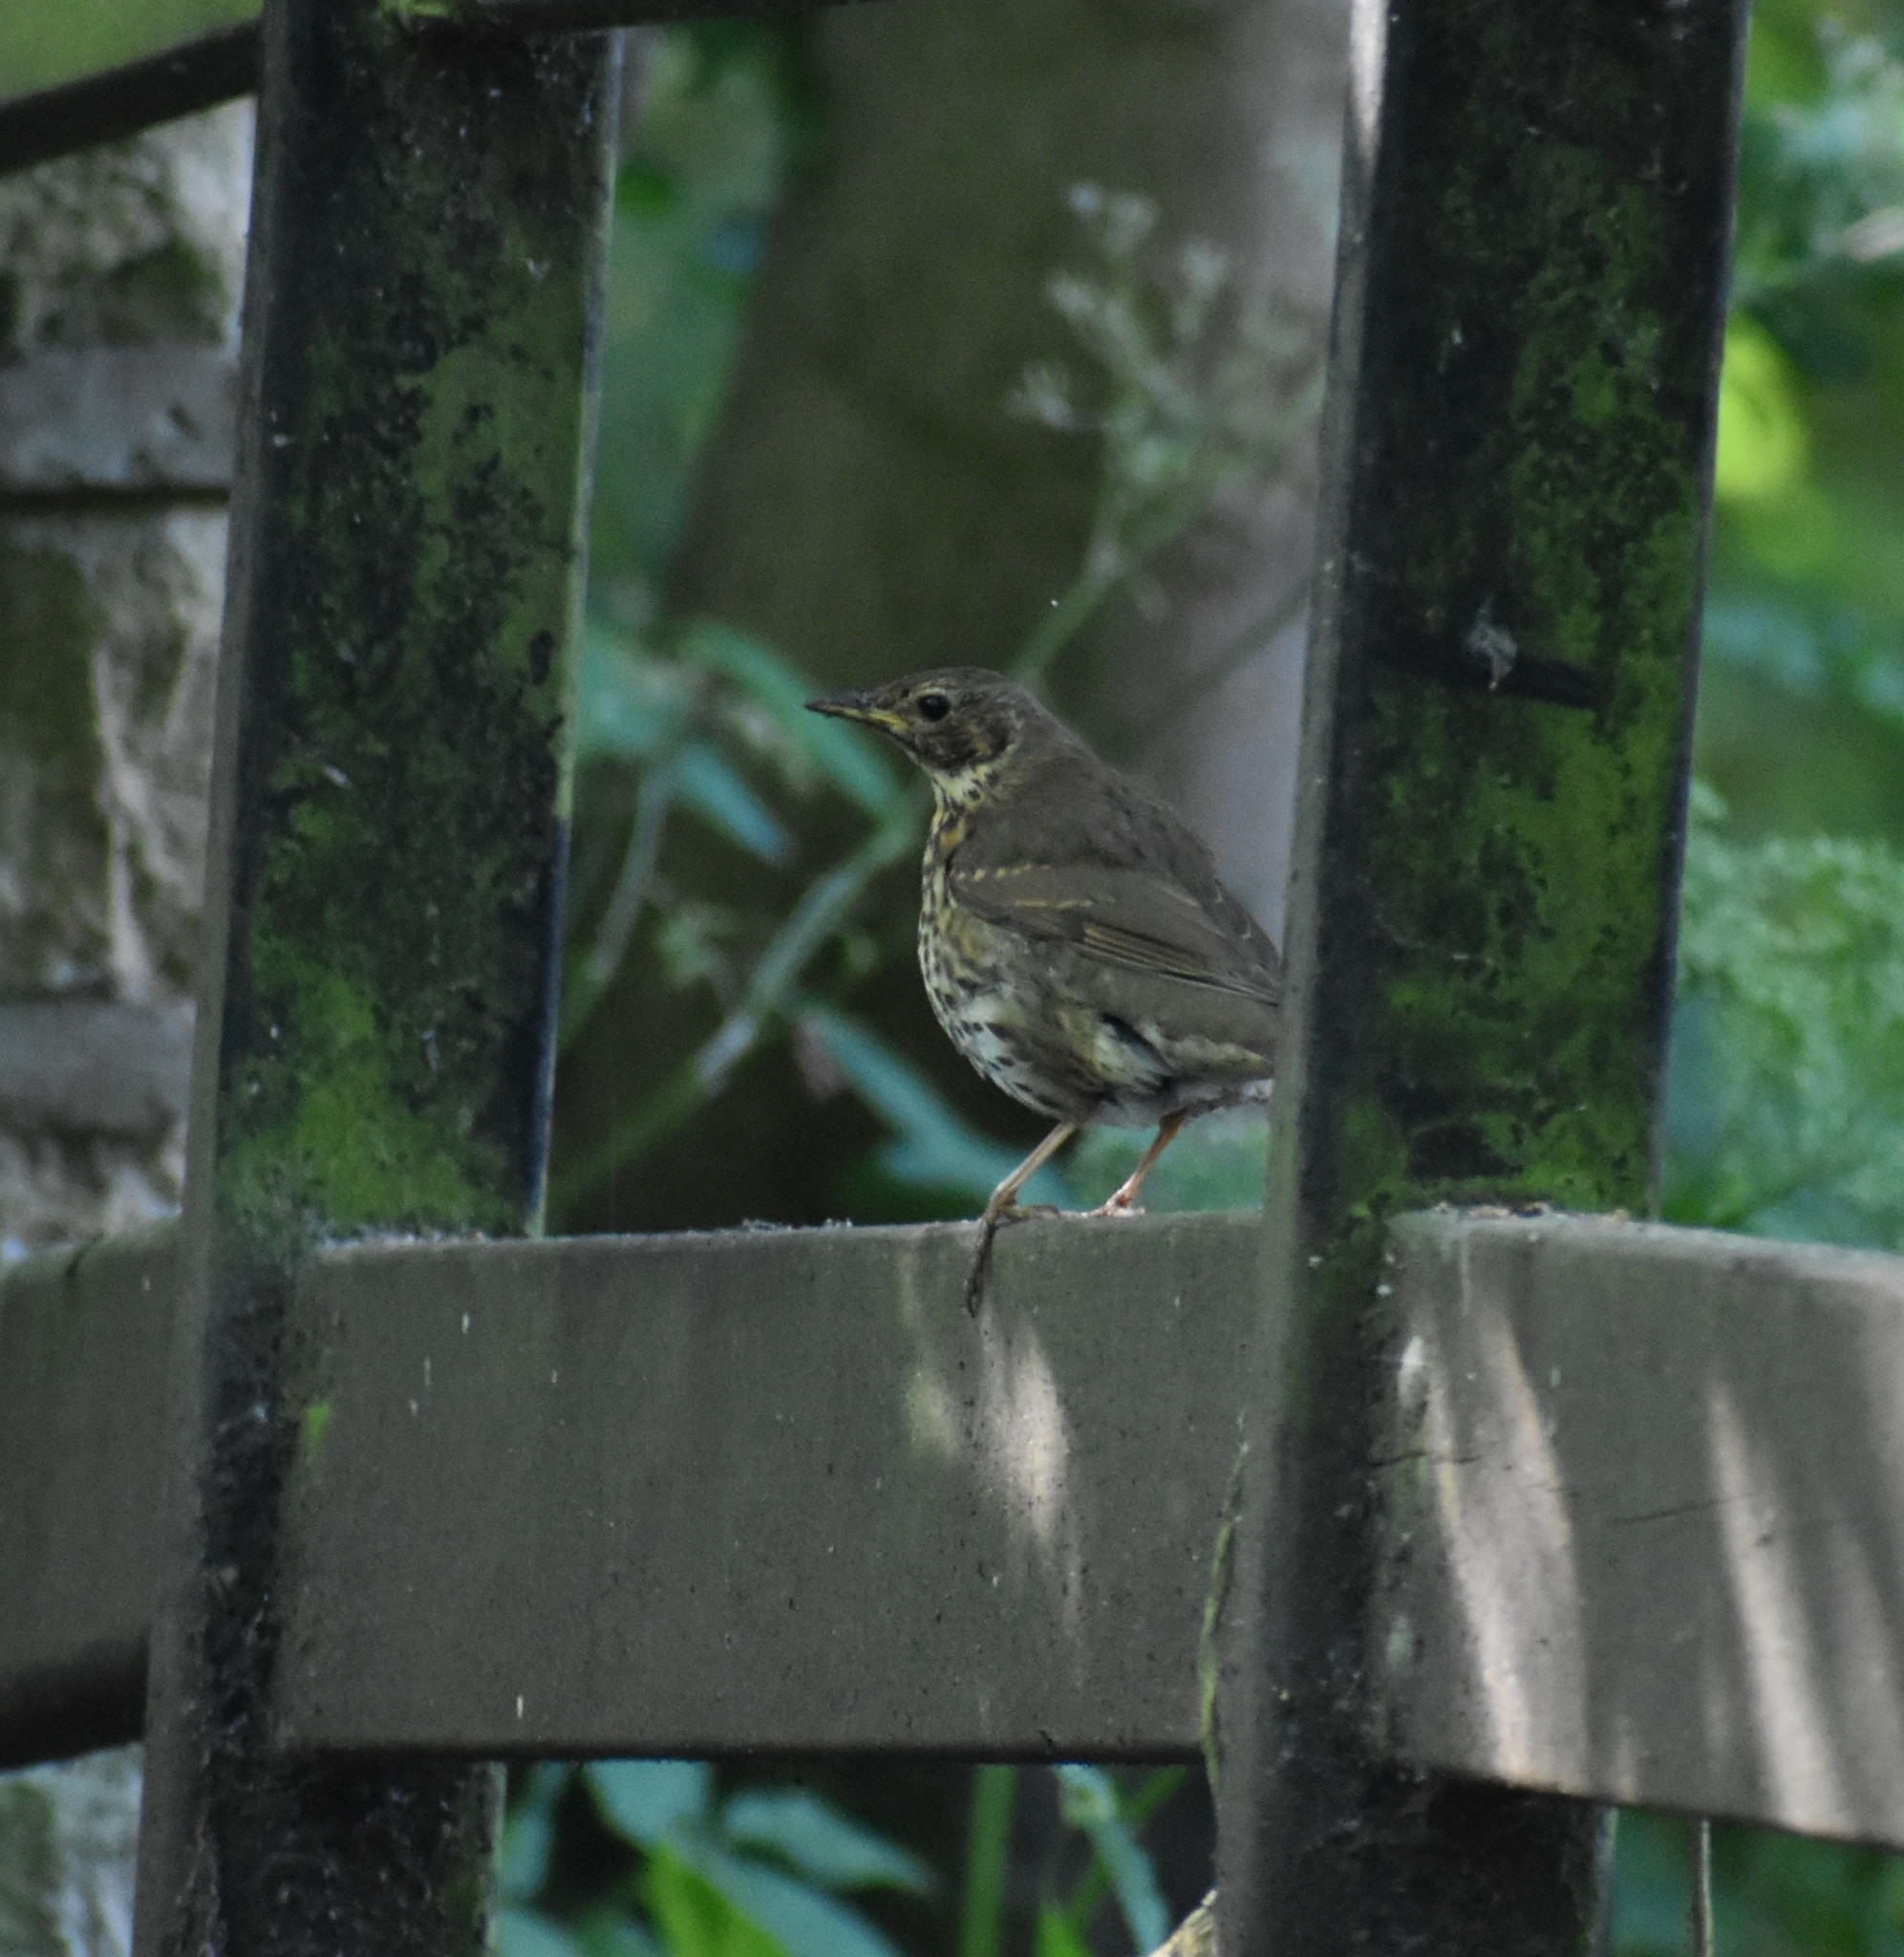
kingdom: Animalia
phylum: Chordata
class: Aves
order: Passeriformes
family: Turdidae
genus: Turdus
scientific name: Turdus philomelos
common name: Song thrush
